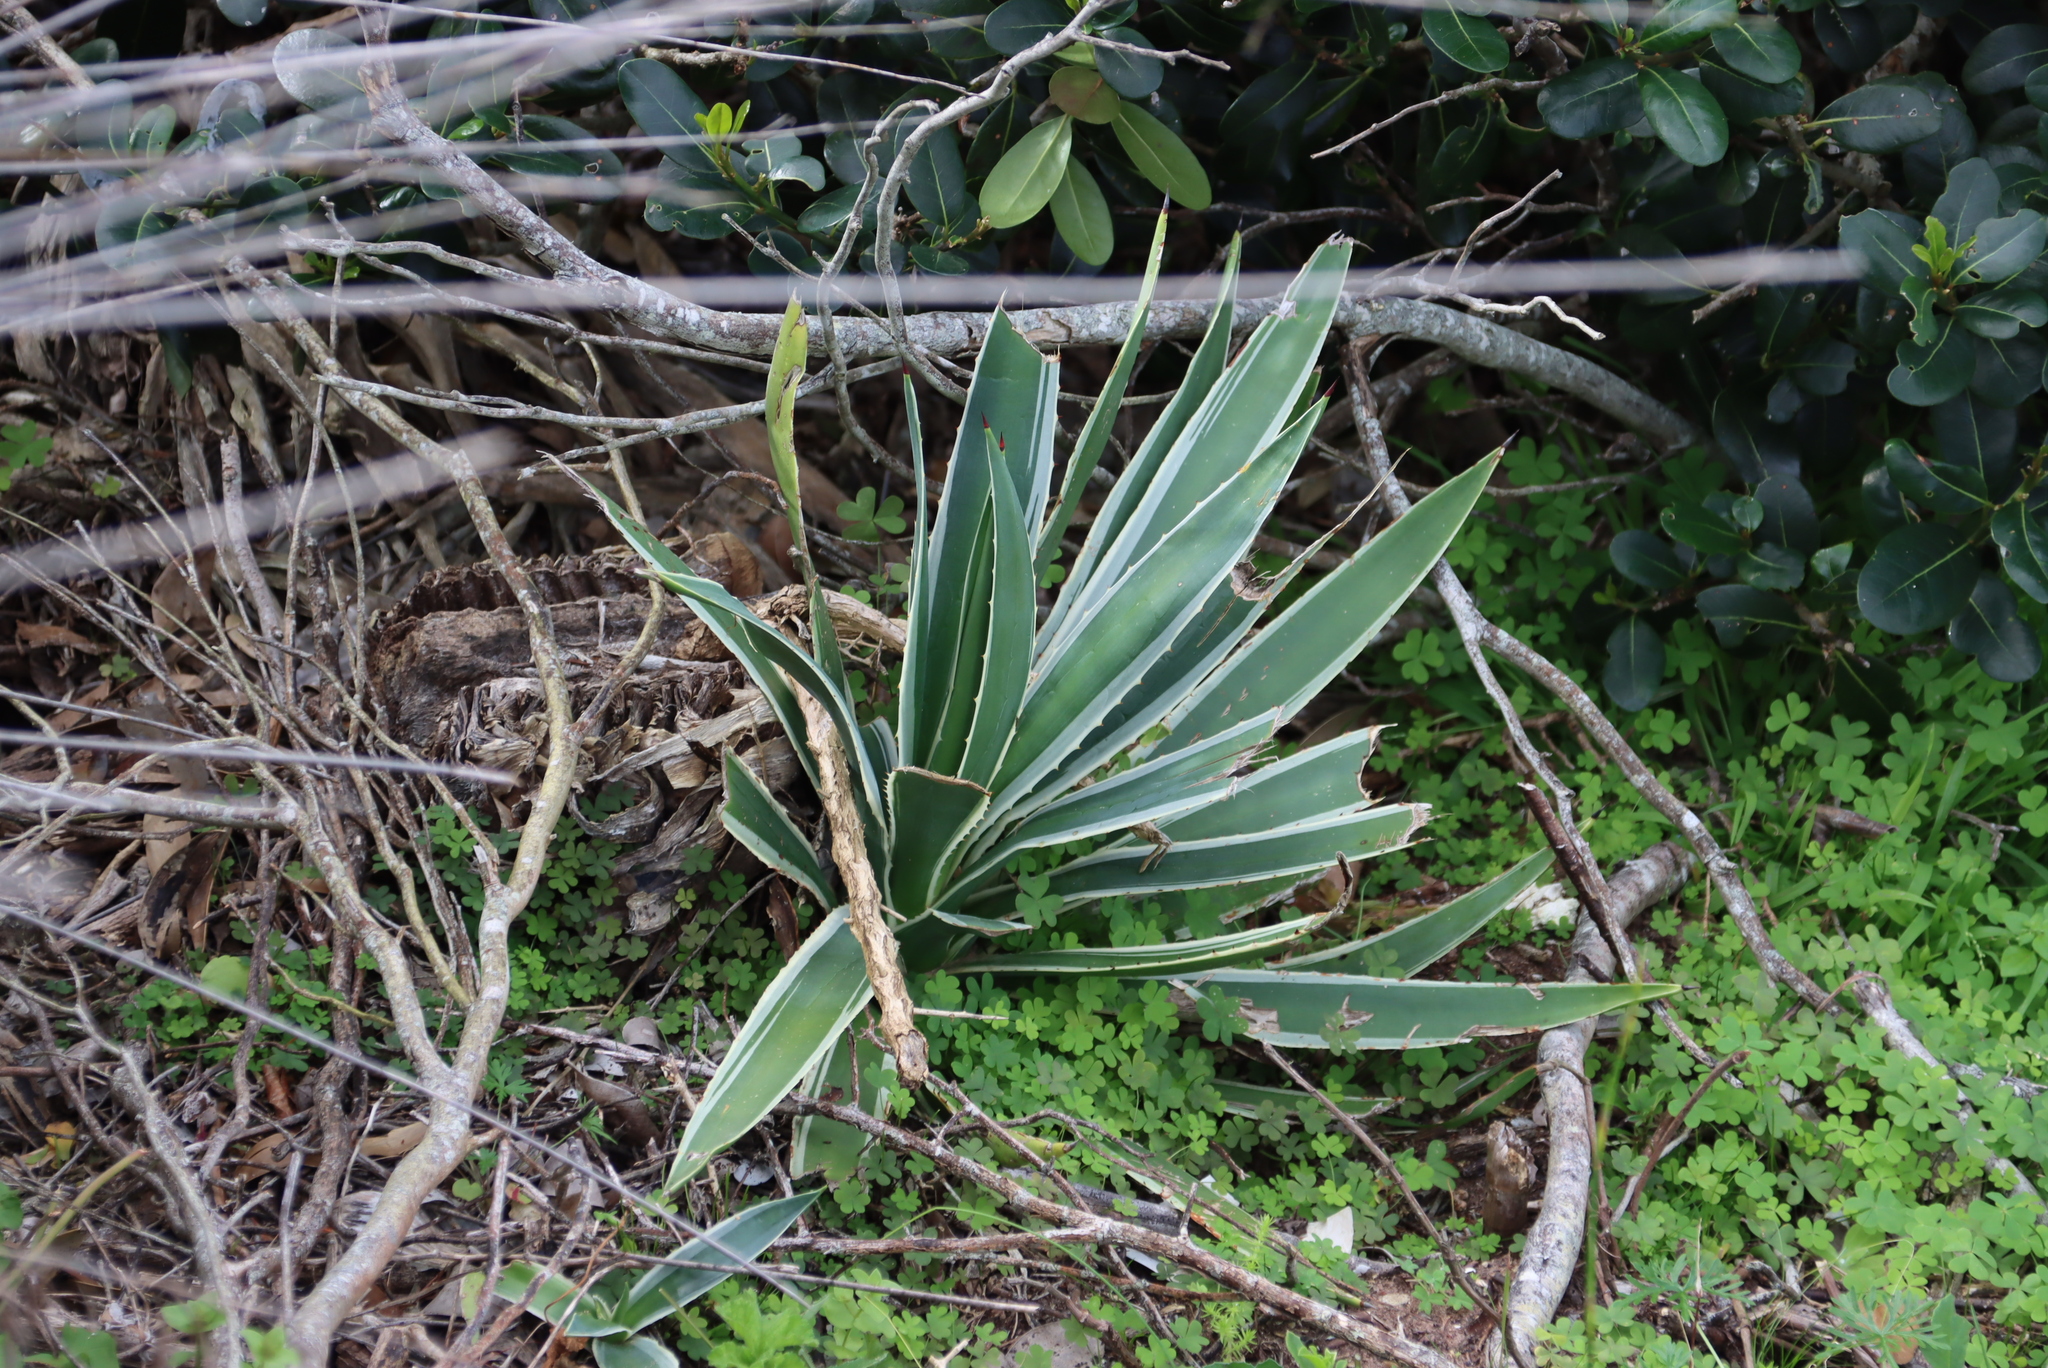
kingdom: Plantae
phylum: Tracheophyta
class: Liliopsida
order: Asparagales
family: Asparagaceae
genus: Agave
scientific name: Agave angustifolia
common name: Mescal agave
